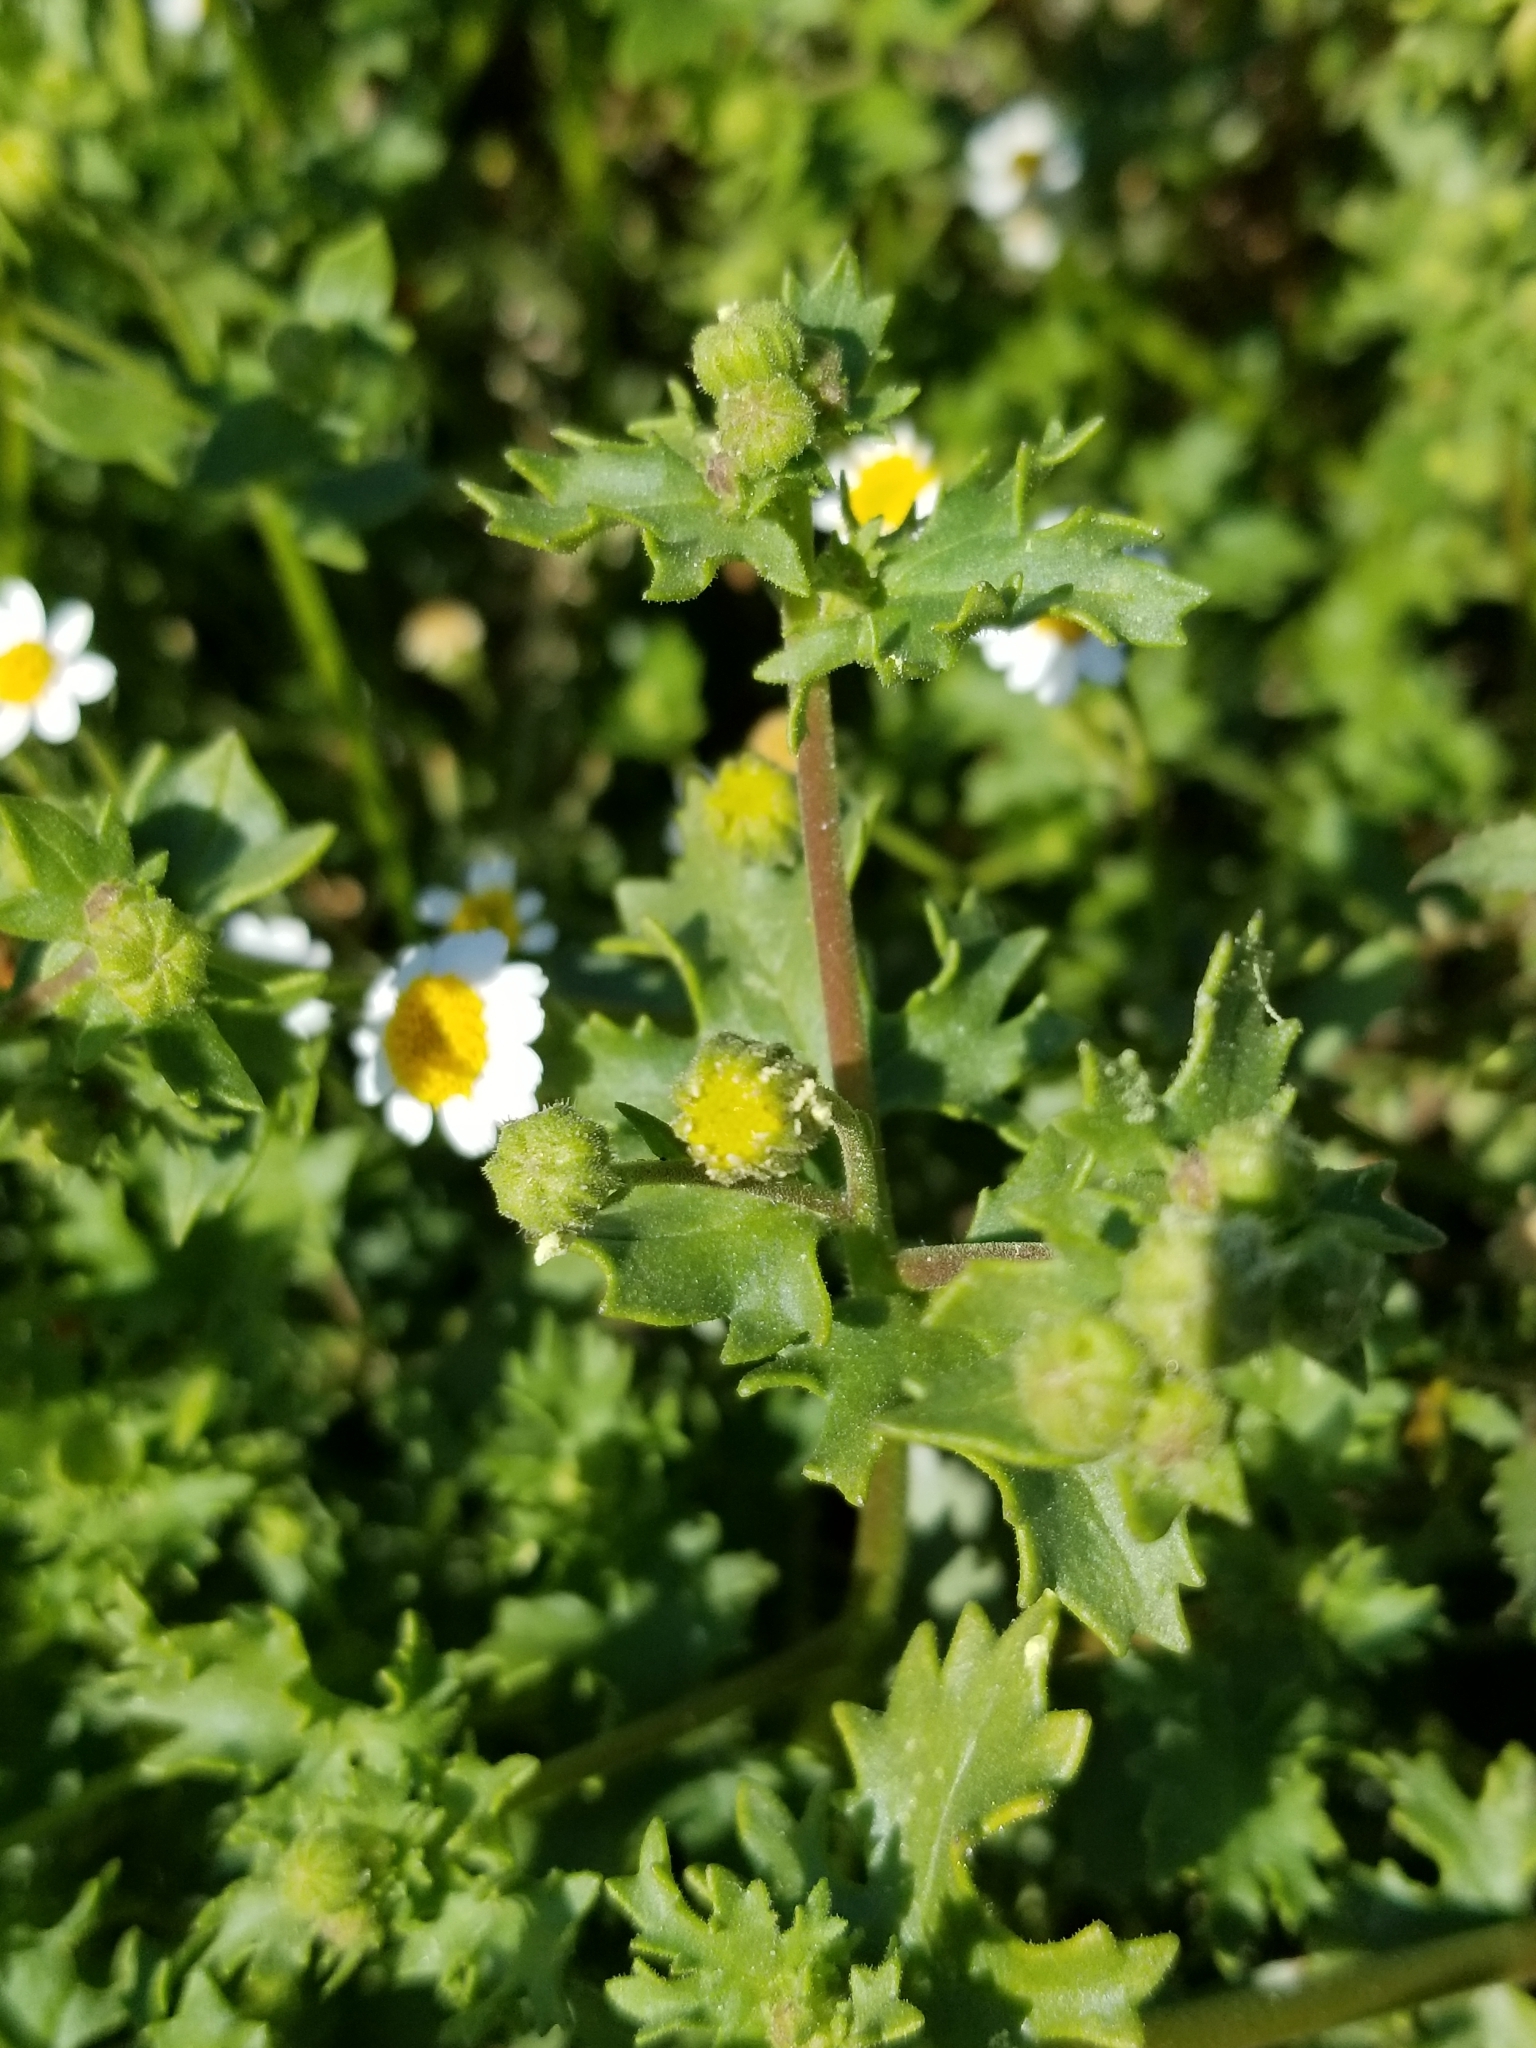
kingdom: Plantae
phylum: Tracheophyta
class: Magnoliopsida
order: Asterales
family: Asteraceae
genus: Laphamia
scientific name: Laphamia emoryi
